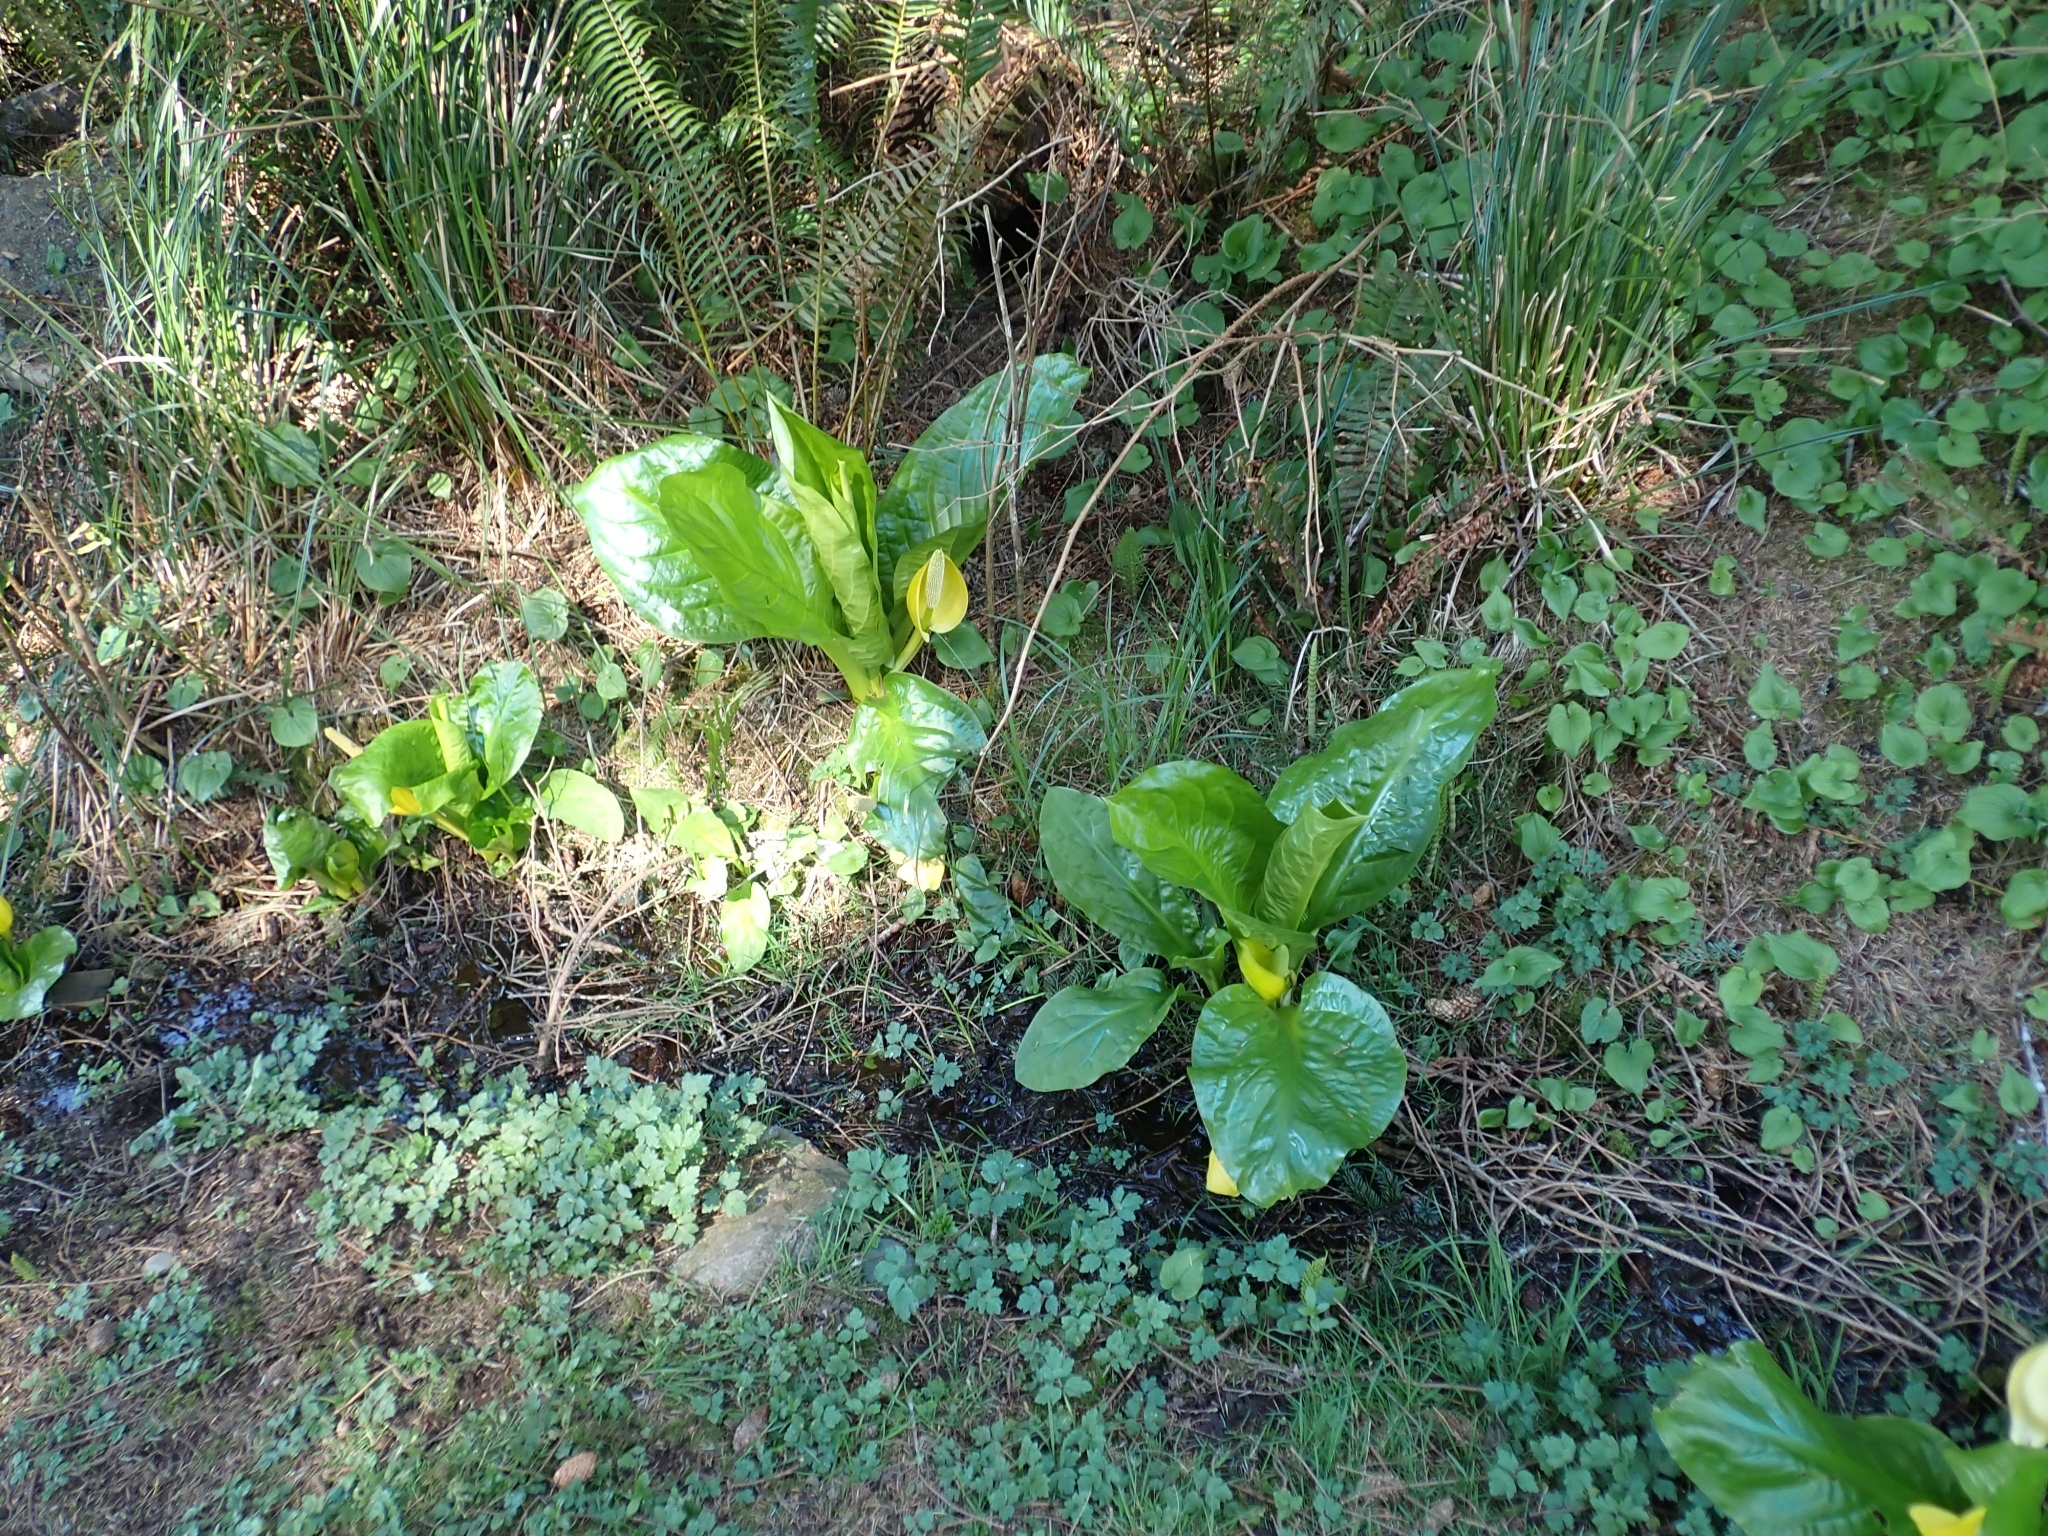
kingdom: Plantae
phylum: Tracheophyta
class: Liliopsida
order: Alismatales
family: Araceae
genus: Lysichiton
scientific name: Lysichiton americanus
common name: American skunk cabbage
